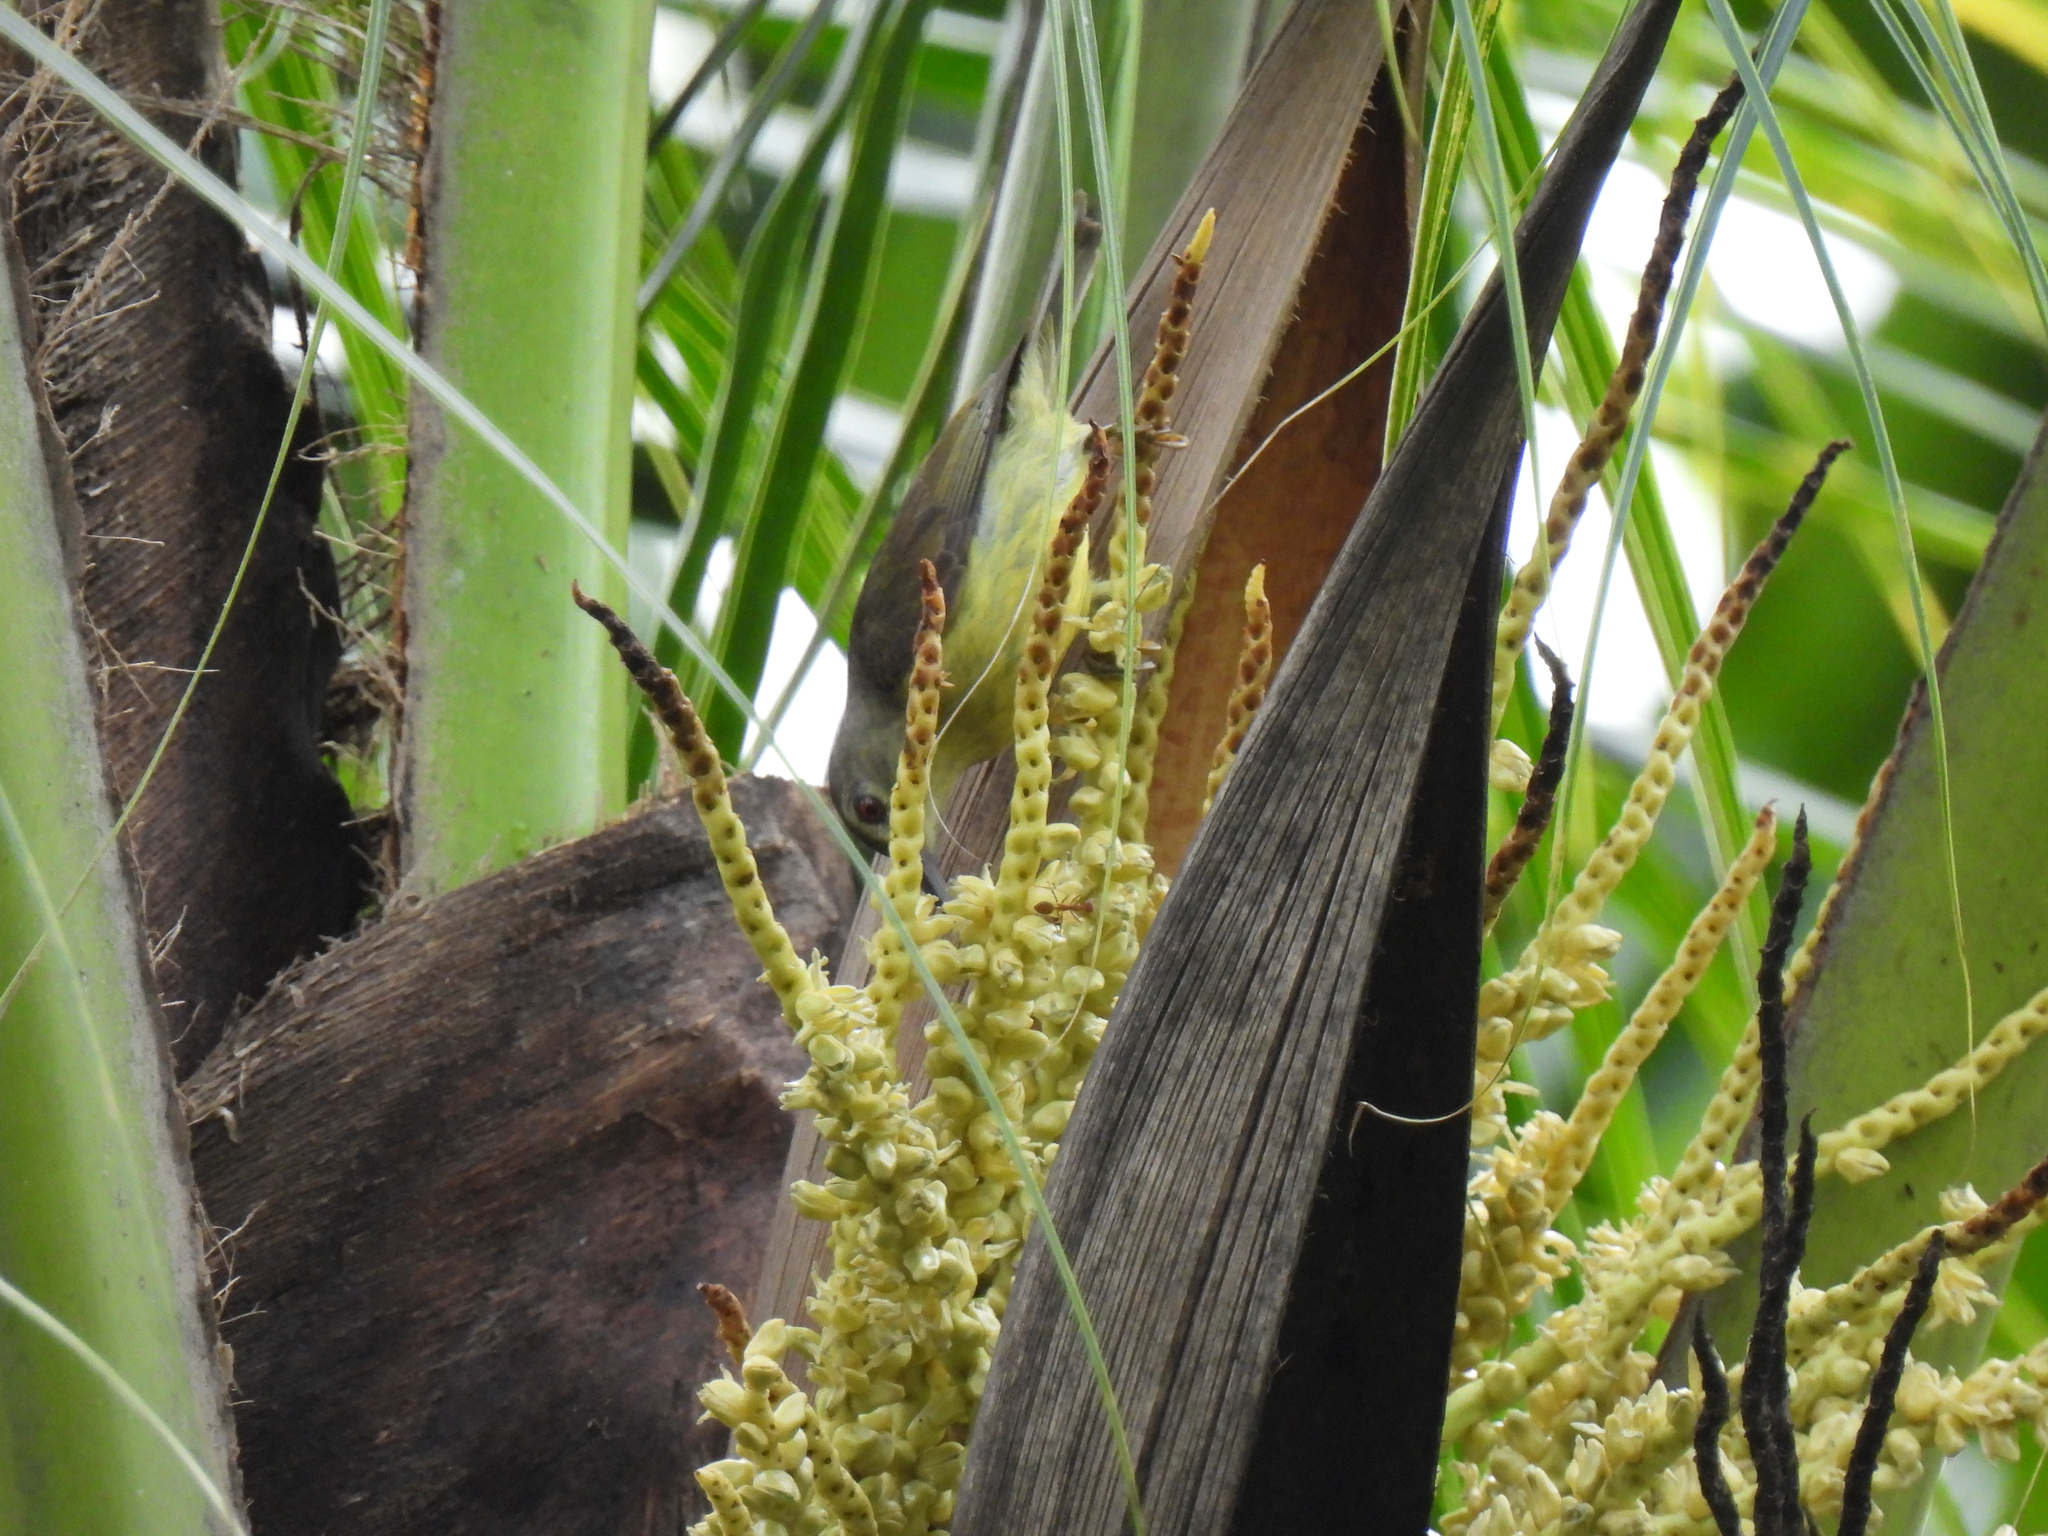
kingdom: Animalia
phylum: Chordata
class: Aves
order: Passeriformes
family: Nectariniidae
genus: Anthreptes
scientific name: Anthreptes malacensis
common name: Brown-throated sunbird
